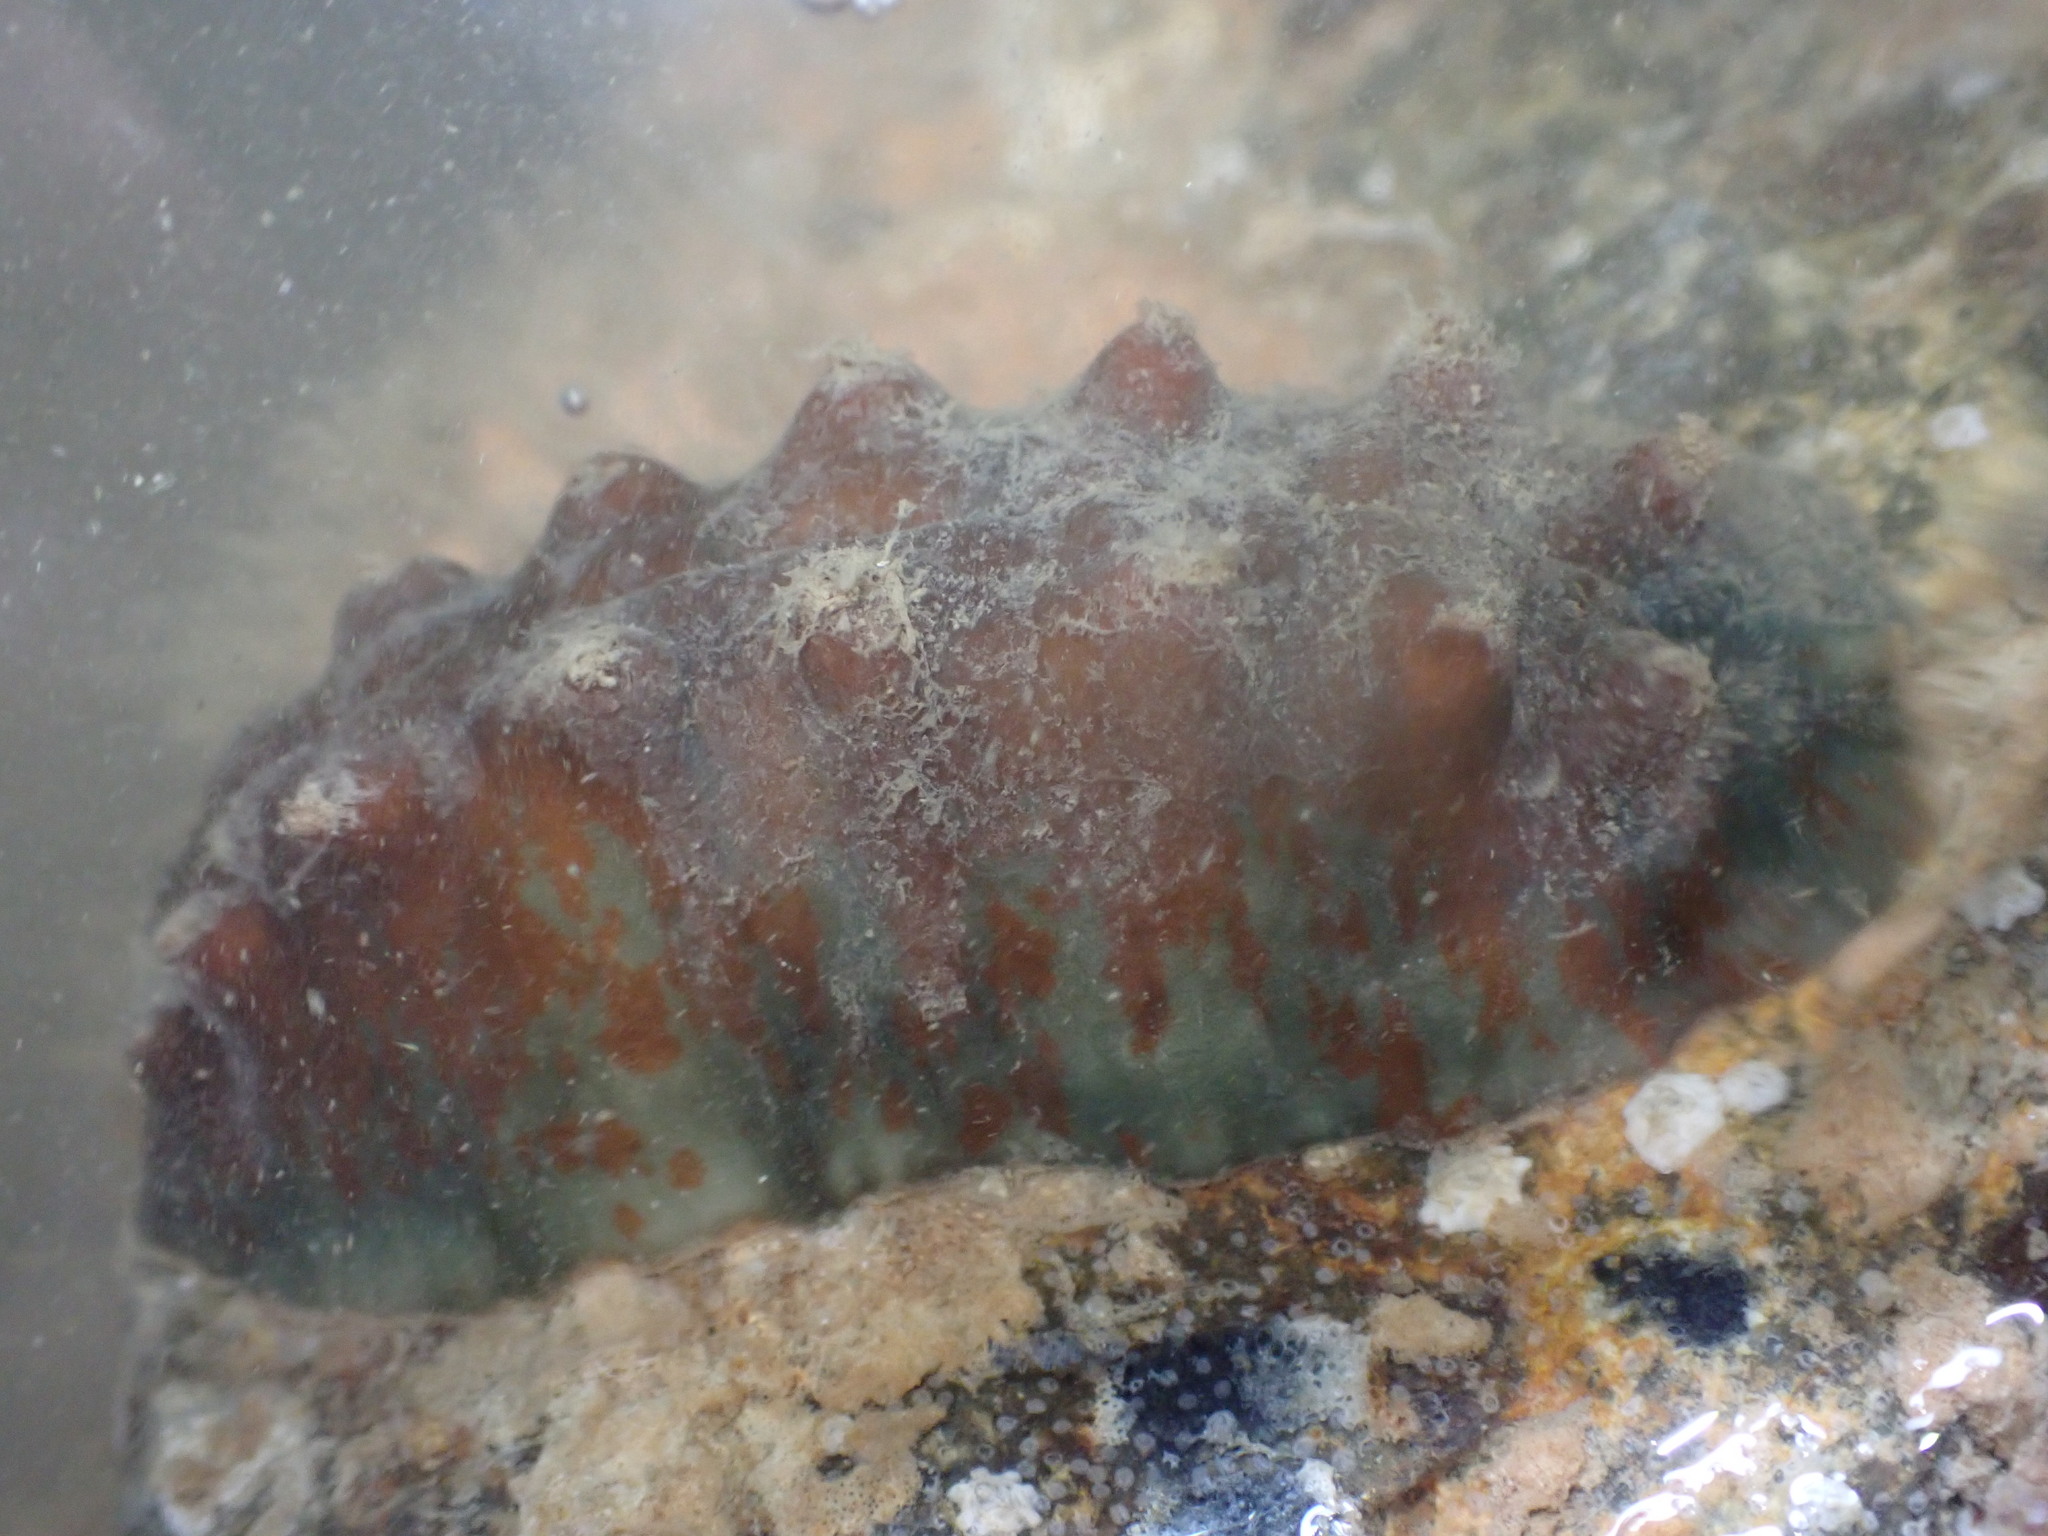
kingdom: Animalia
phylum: Mollusca
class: Polyplacophora
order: Chitonida
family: Acanthochitonidae
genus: Cryptoconchus
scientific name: Cryptoconchus porosus
